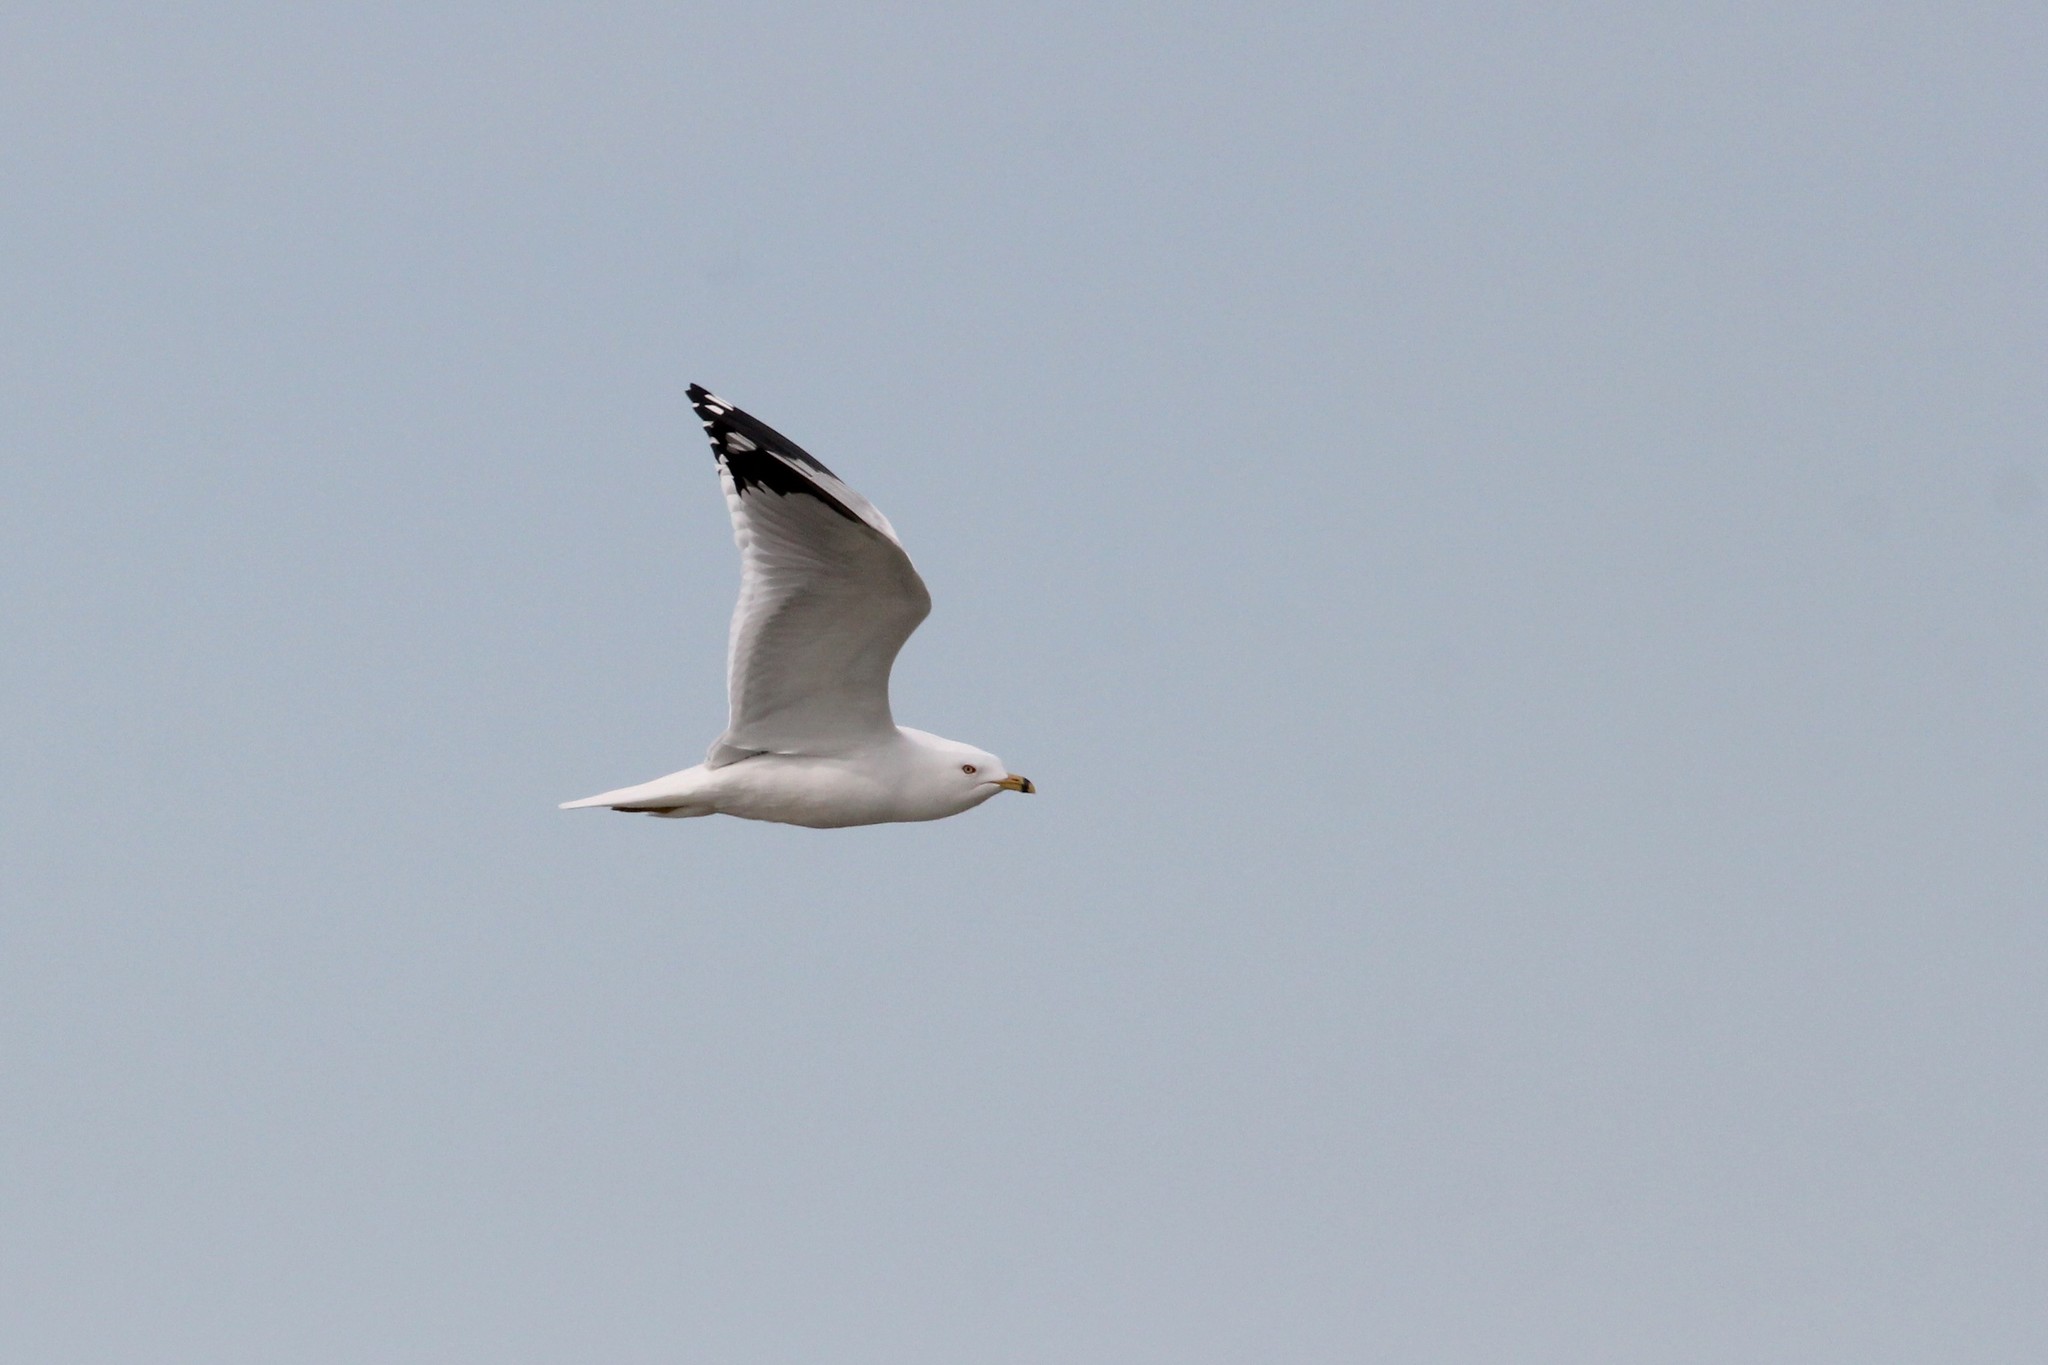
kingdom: Animalia
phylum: Chordata
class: Aves
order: Charadriiformes
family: Laridae
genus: Larus
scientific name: Larus delawarensis
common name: Ring-billed gull
